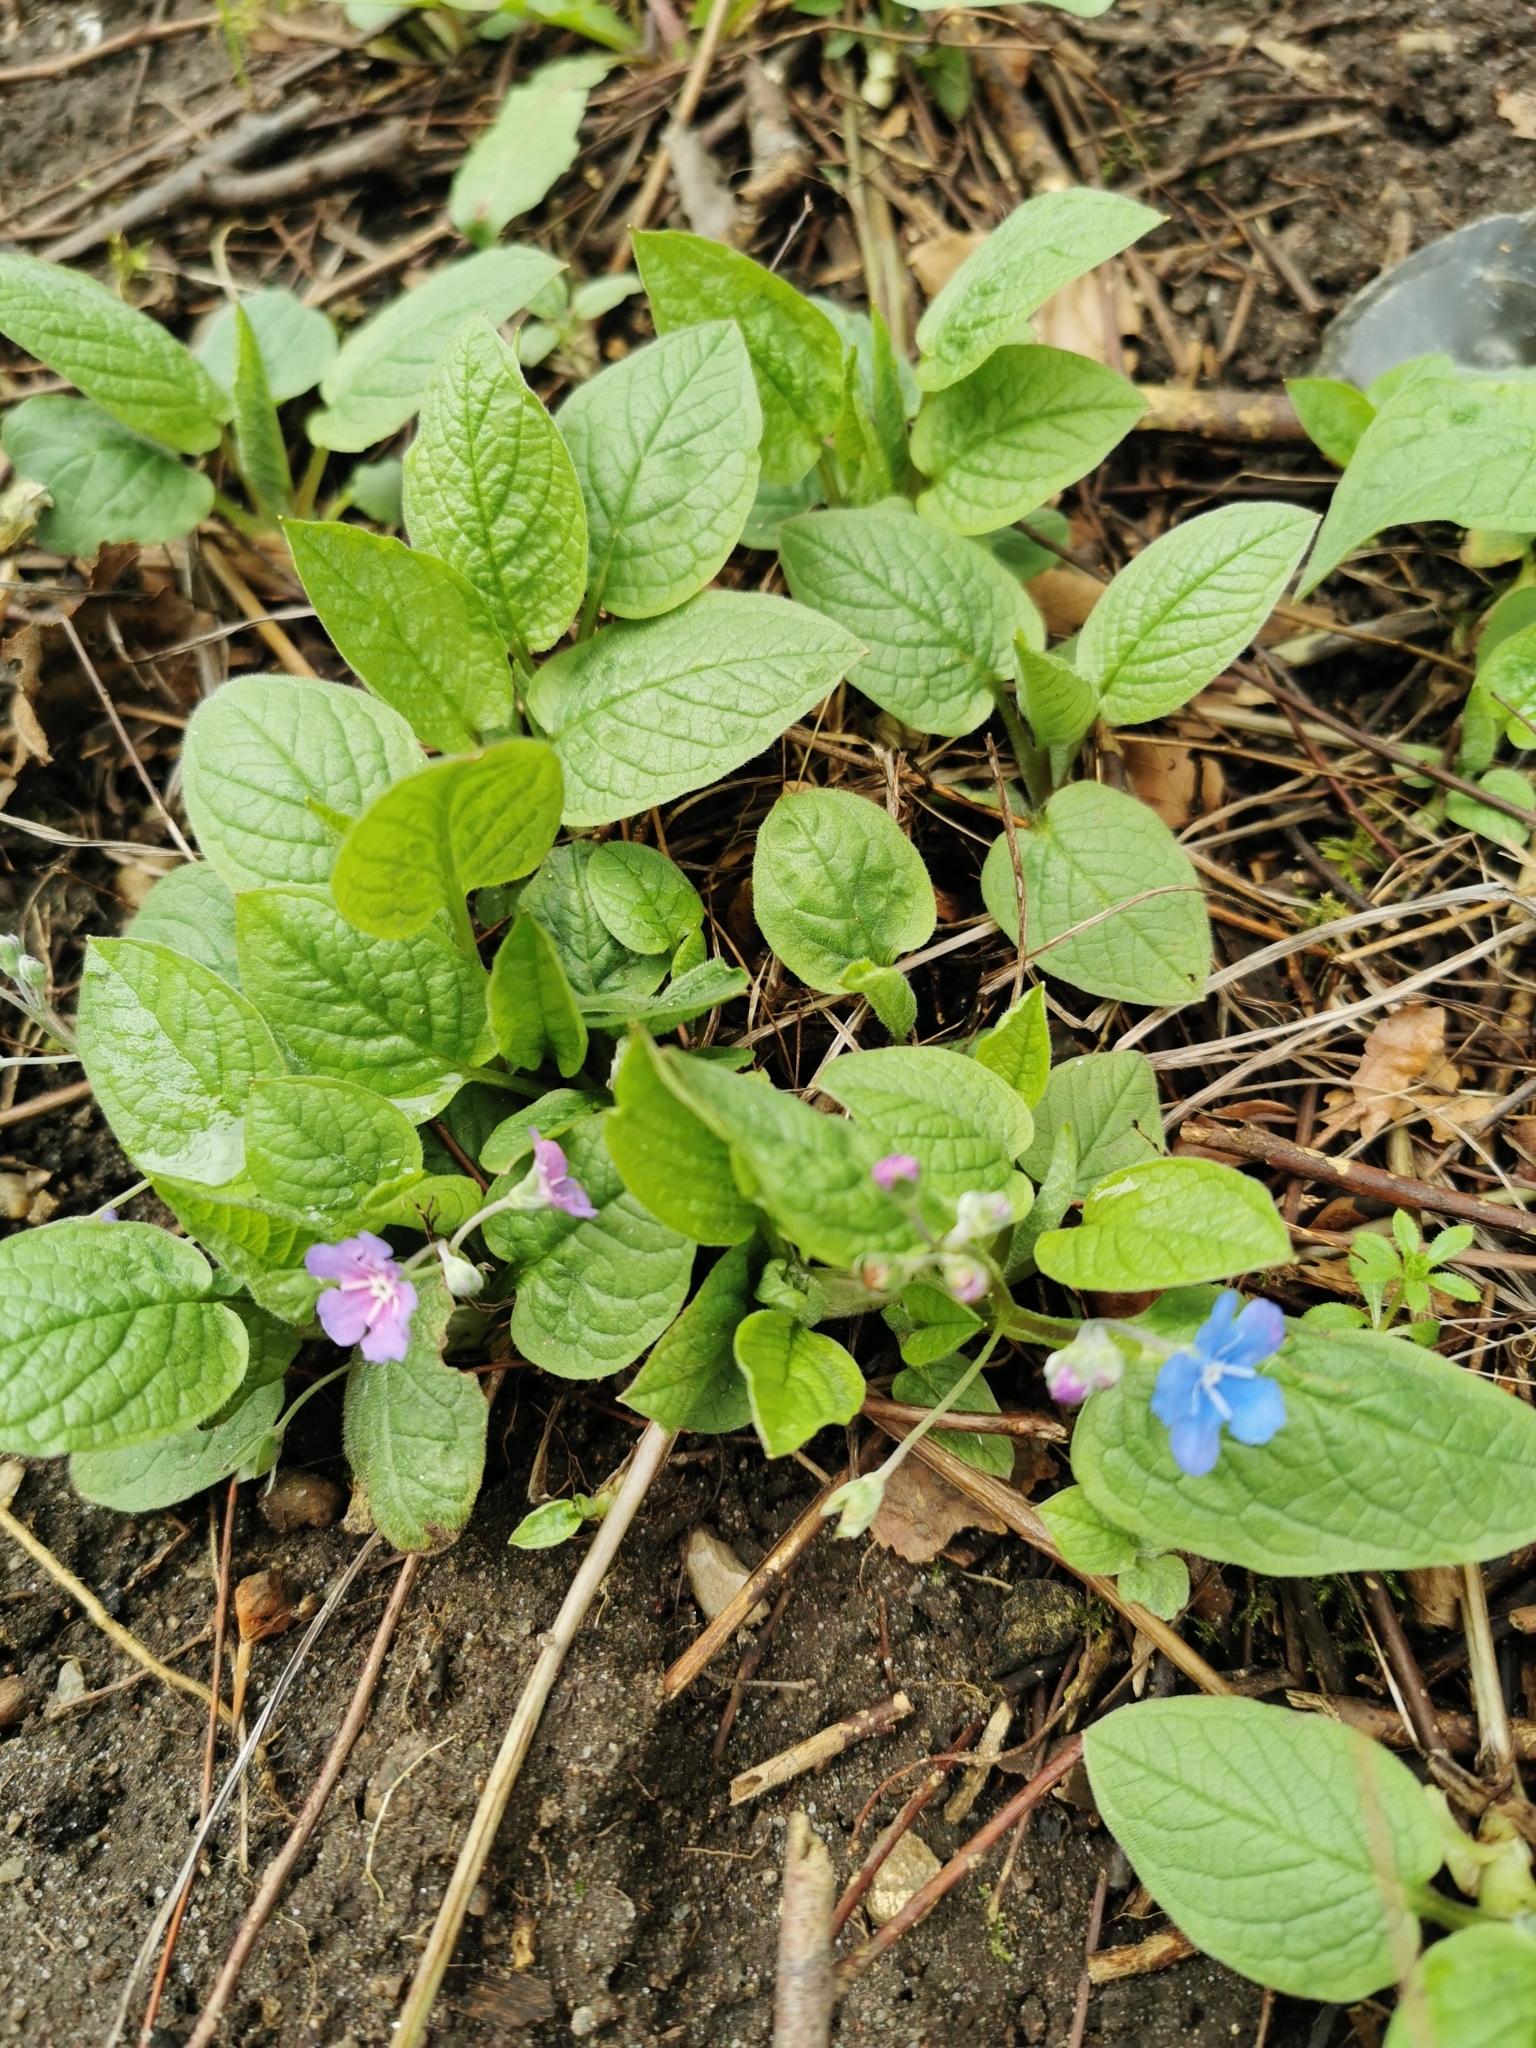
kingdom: Plantae
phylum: Tracheophyta
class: Magnoliopsida
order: Boraginales
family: Boraginaceae
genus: Omphalodes
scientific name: Omphalodes verna
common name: Blue-eyed-mary
